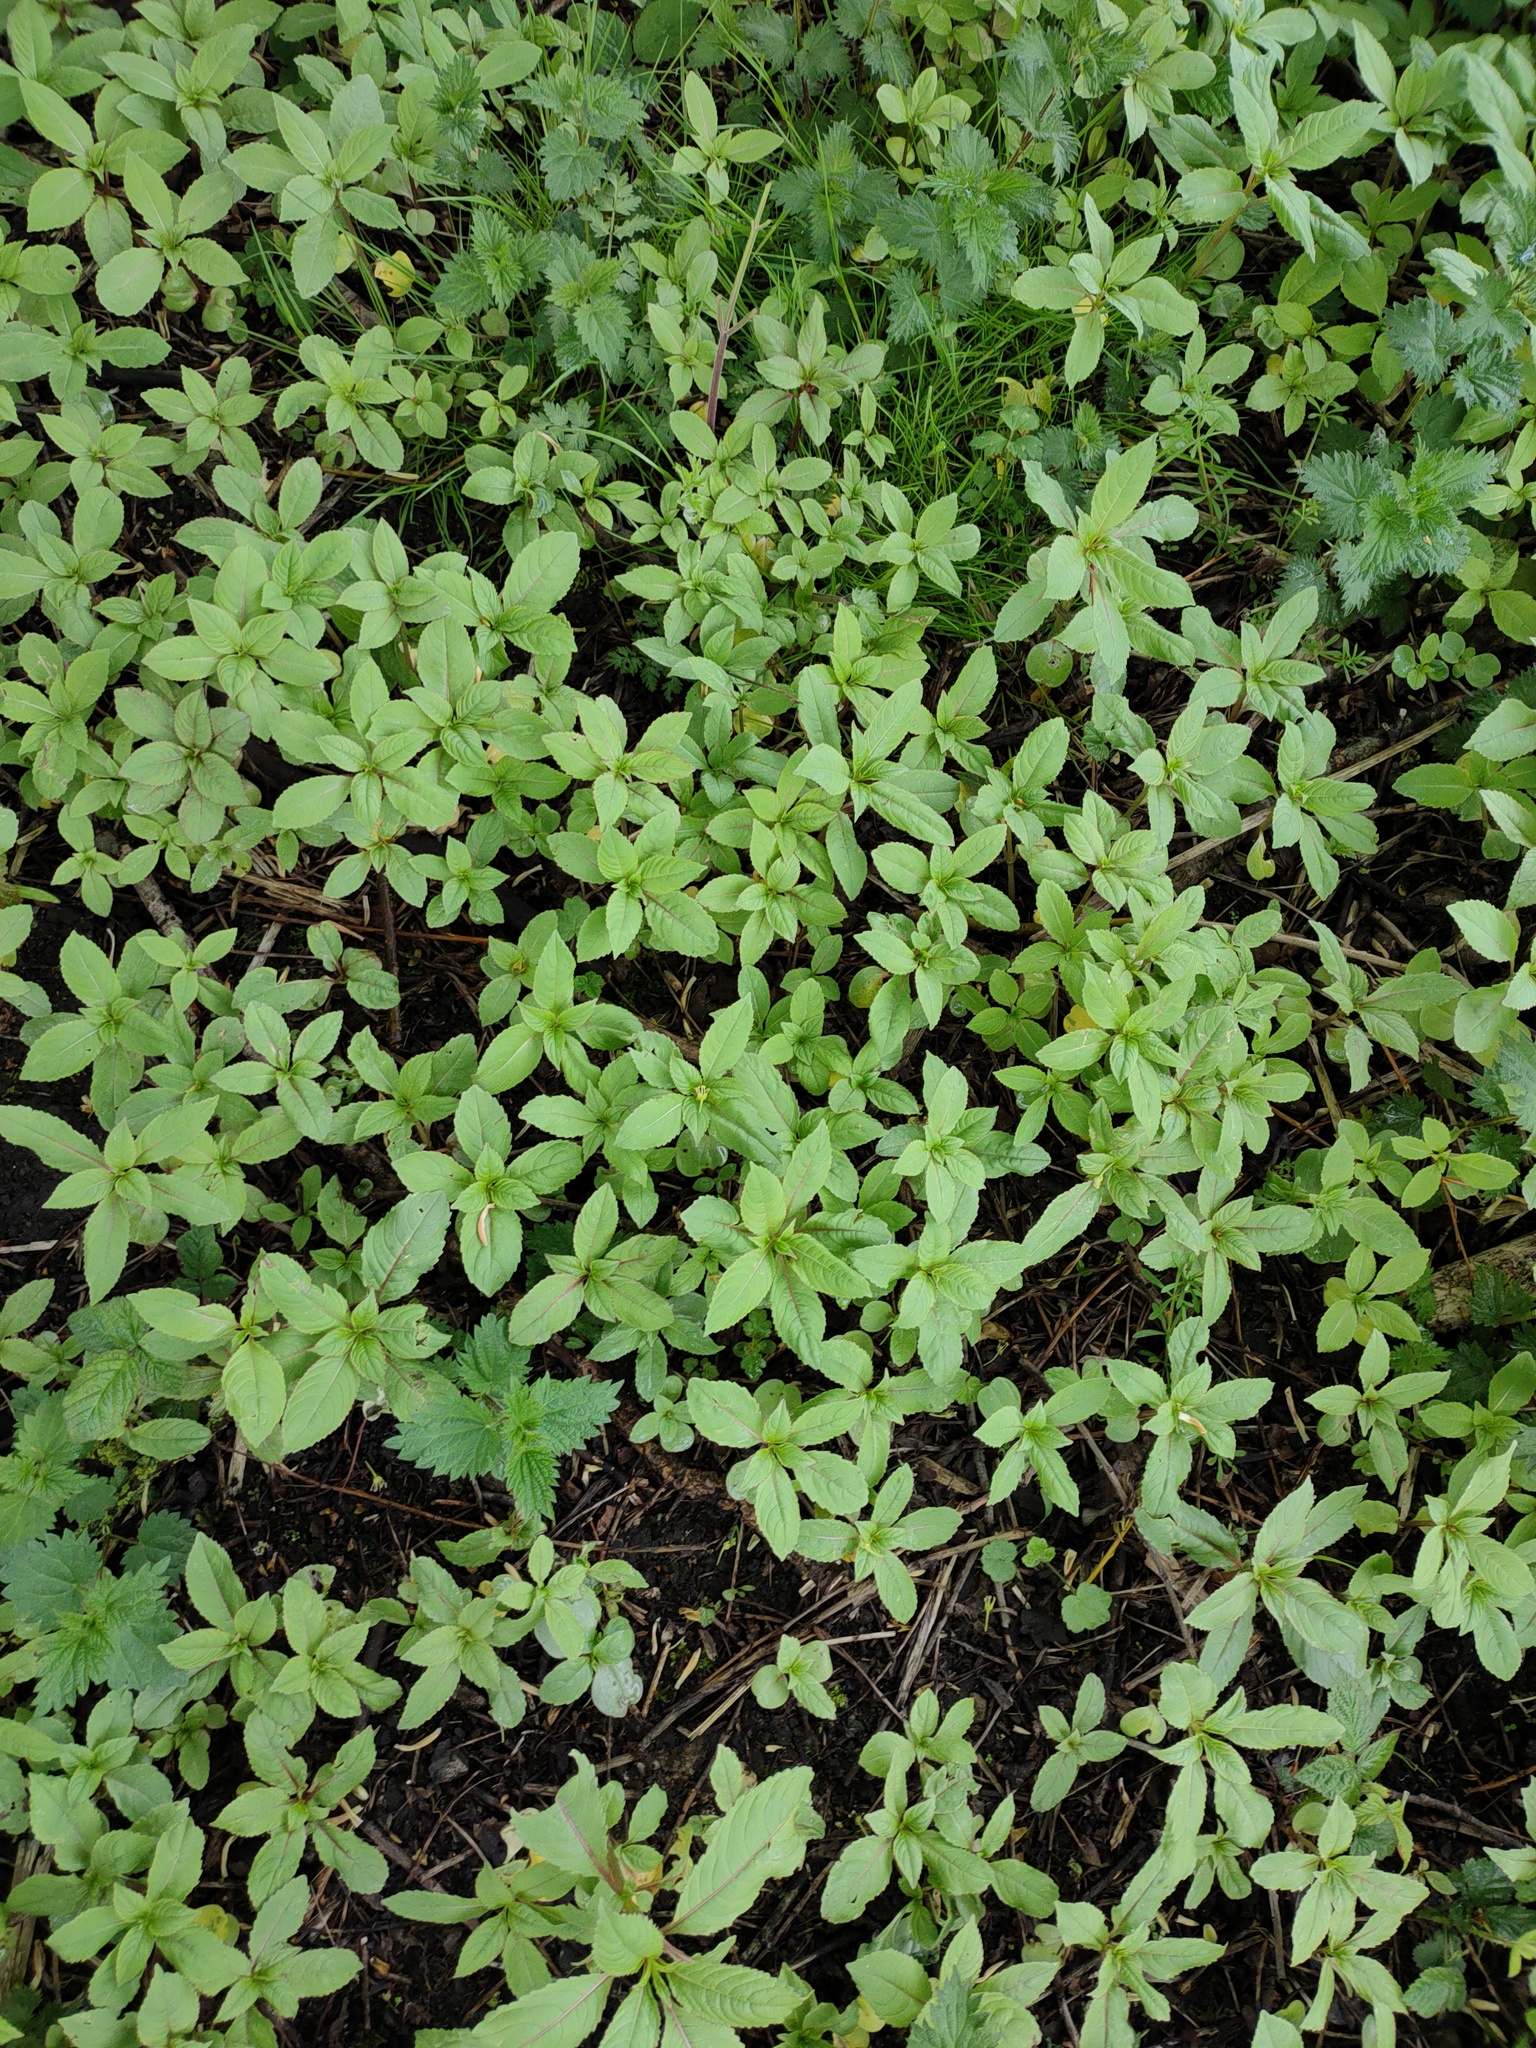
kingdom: Plantae
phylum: Tracheophyta
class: Magnoliopsida
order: Ericales
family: Balsaminaceae
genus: Impatiens
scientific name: Impatiens glandulifera
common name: Himalayan balsam
